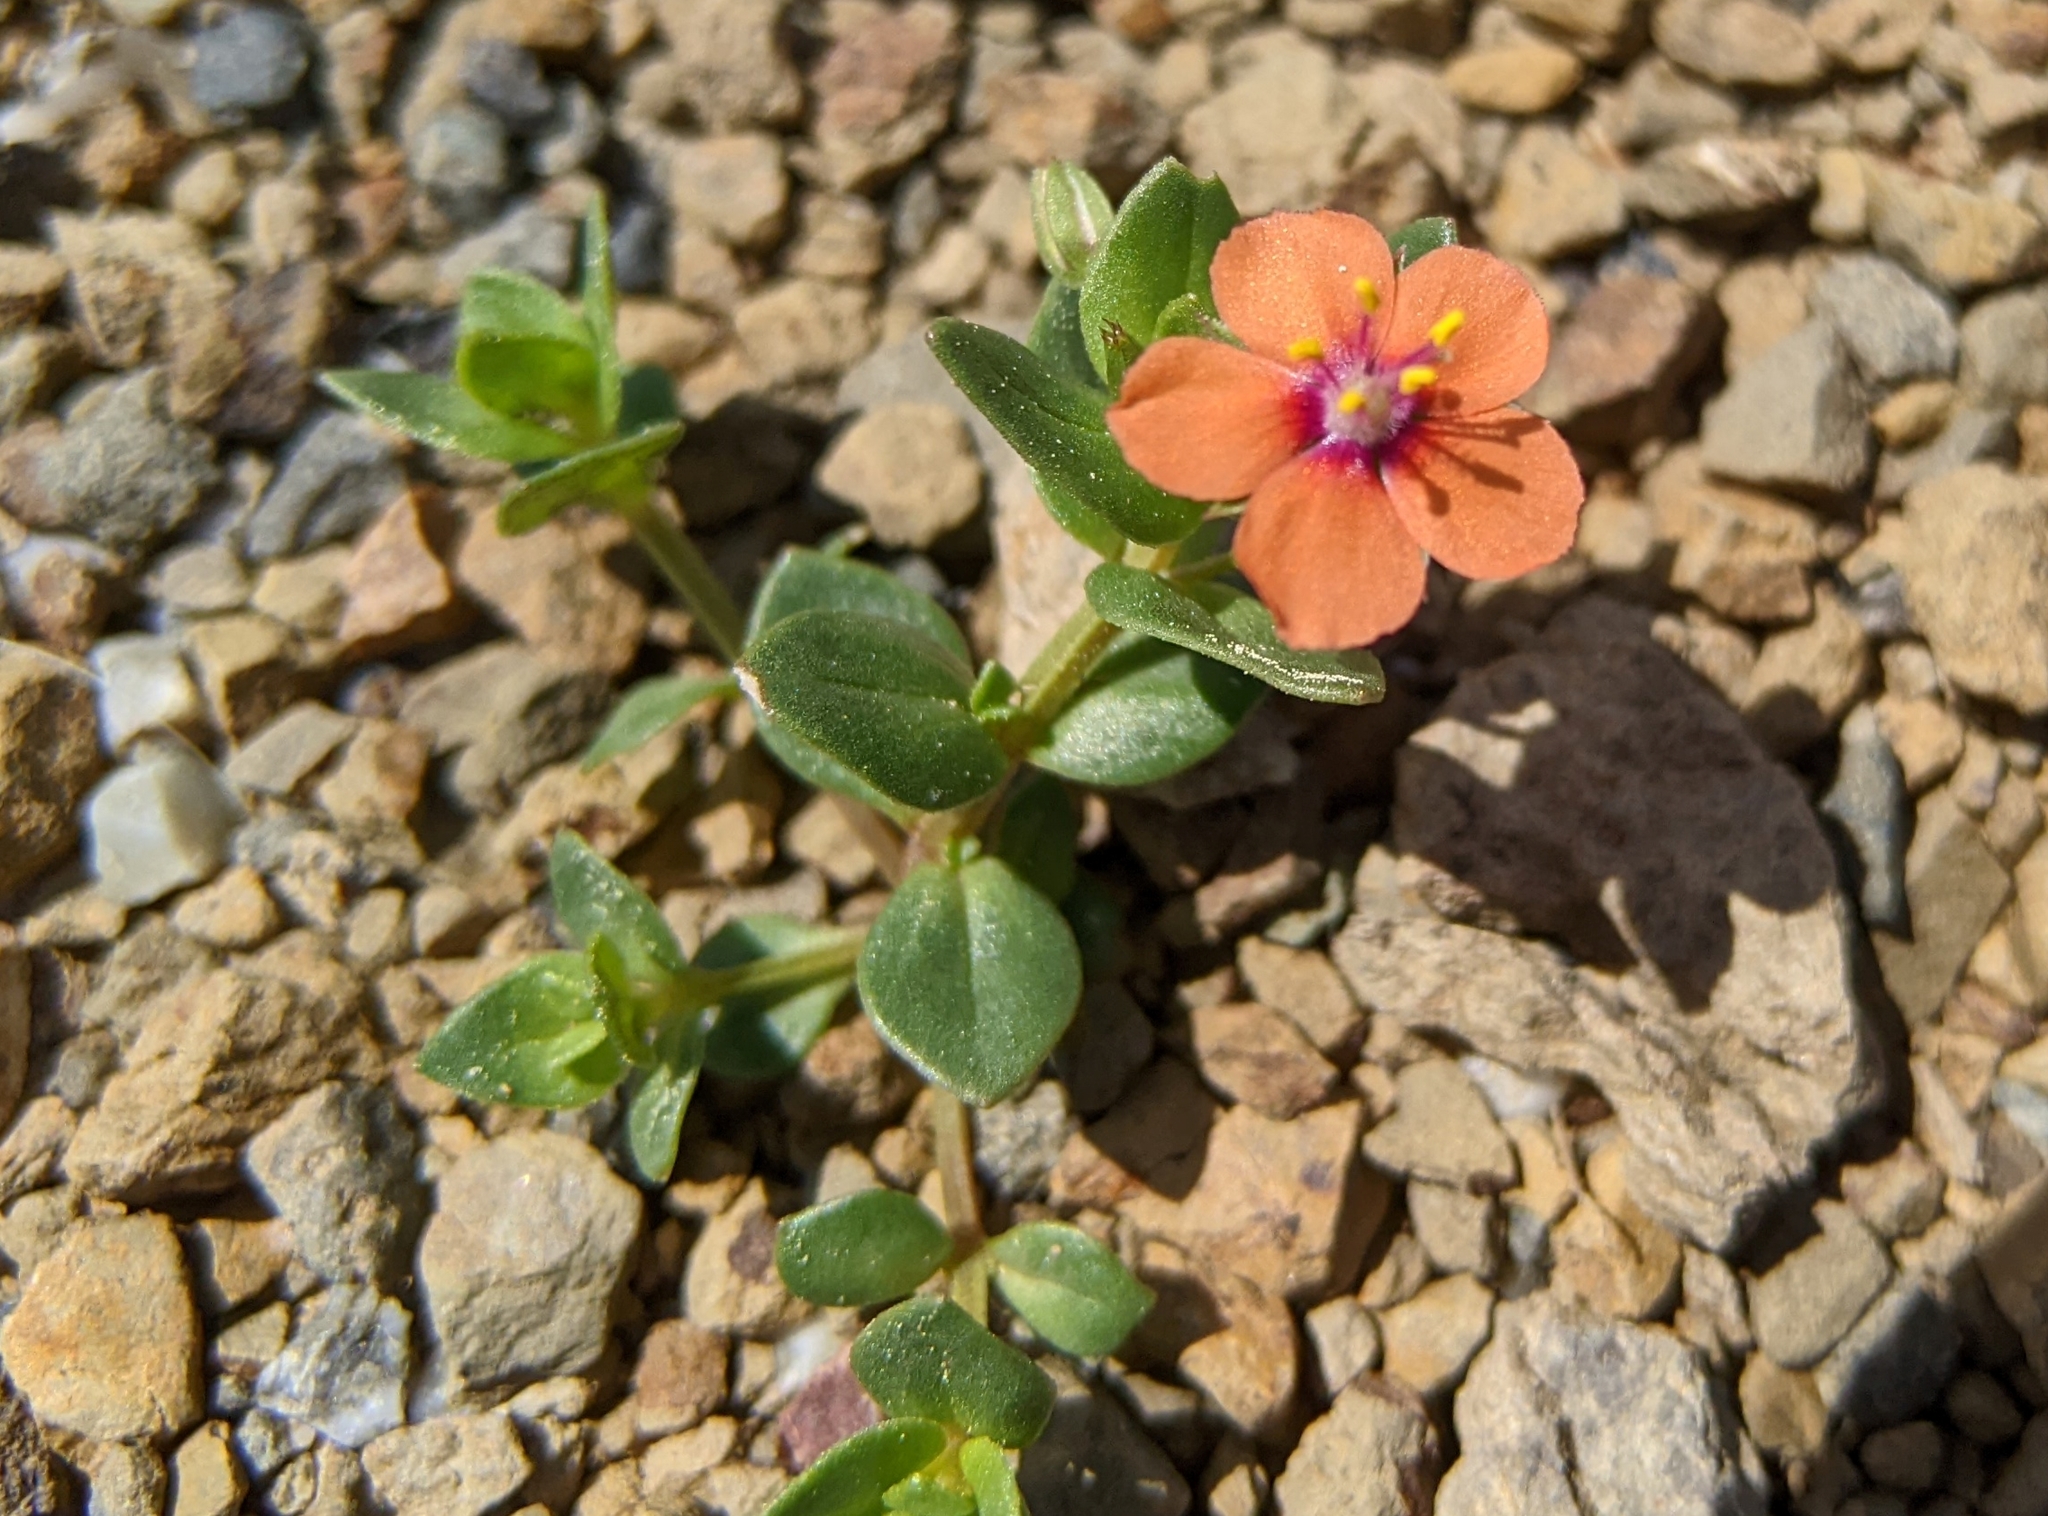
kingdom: Plantae
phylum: Tracheophyta
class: Magnoliopsida
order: Ericales
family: Primulaceae
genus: Lysimachia
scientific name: Lysimachia arvensis
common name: Scarlet pimpernel
